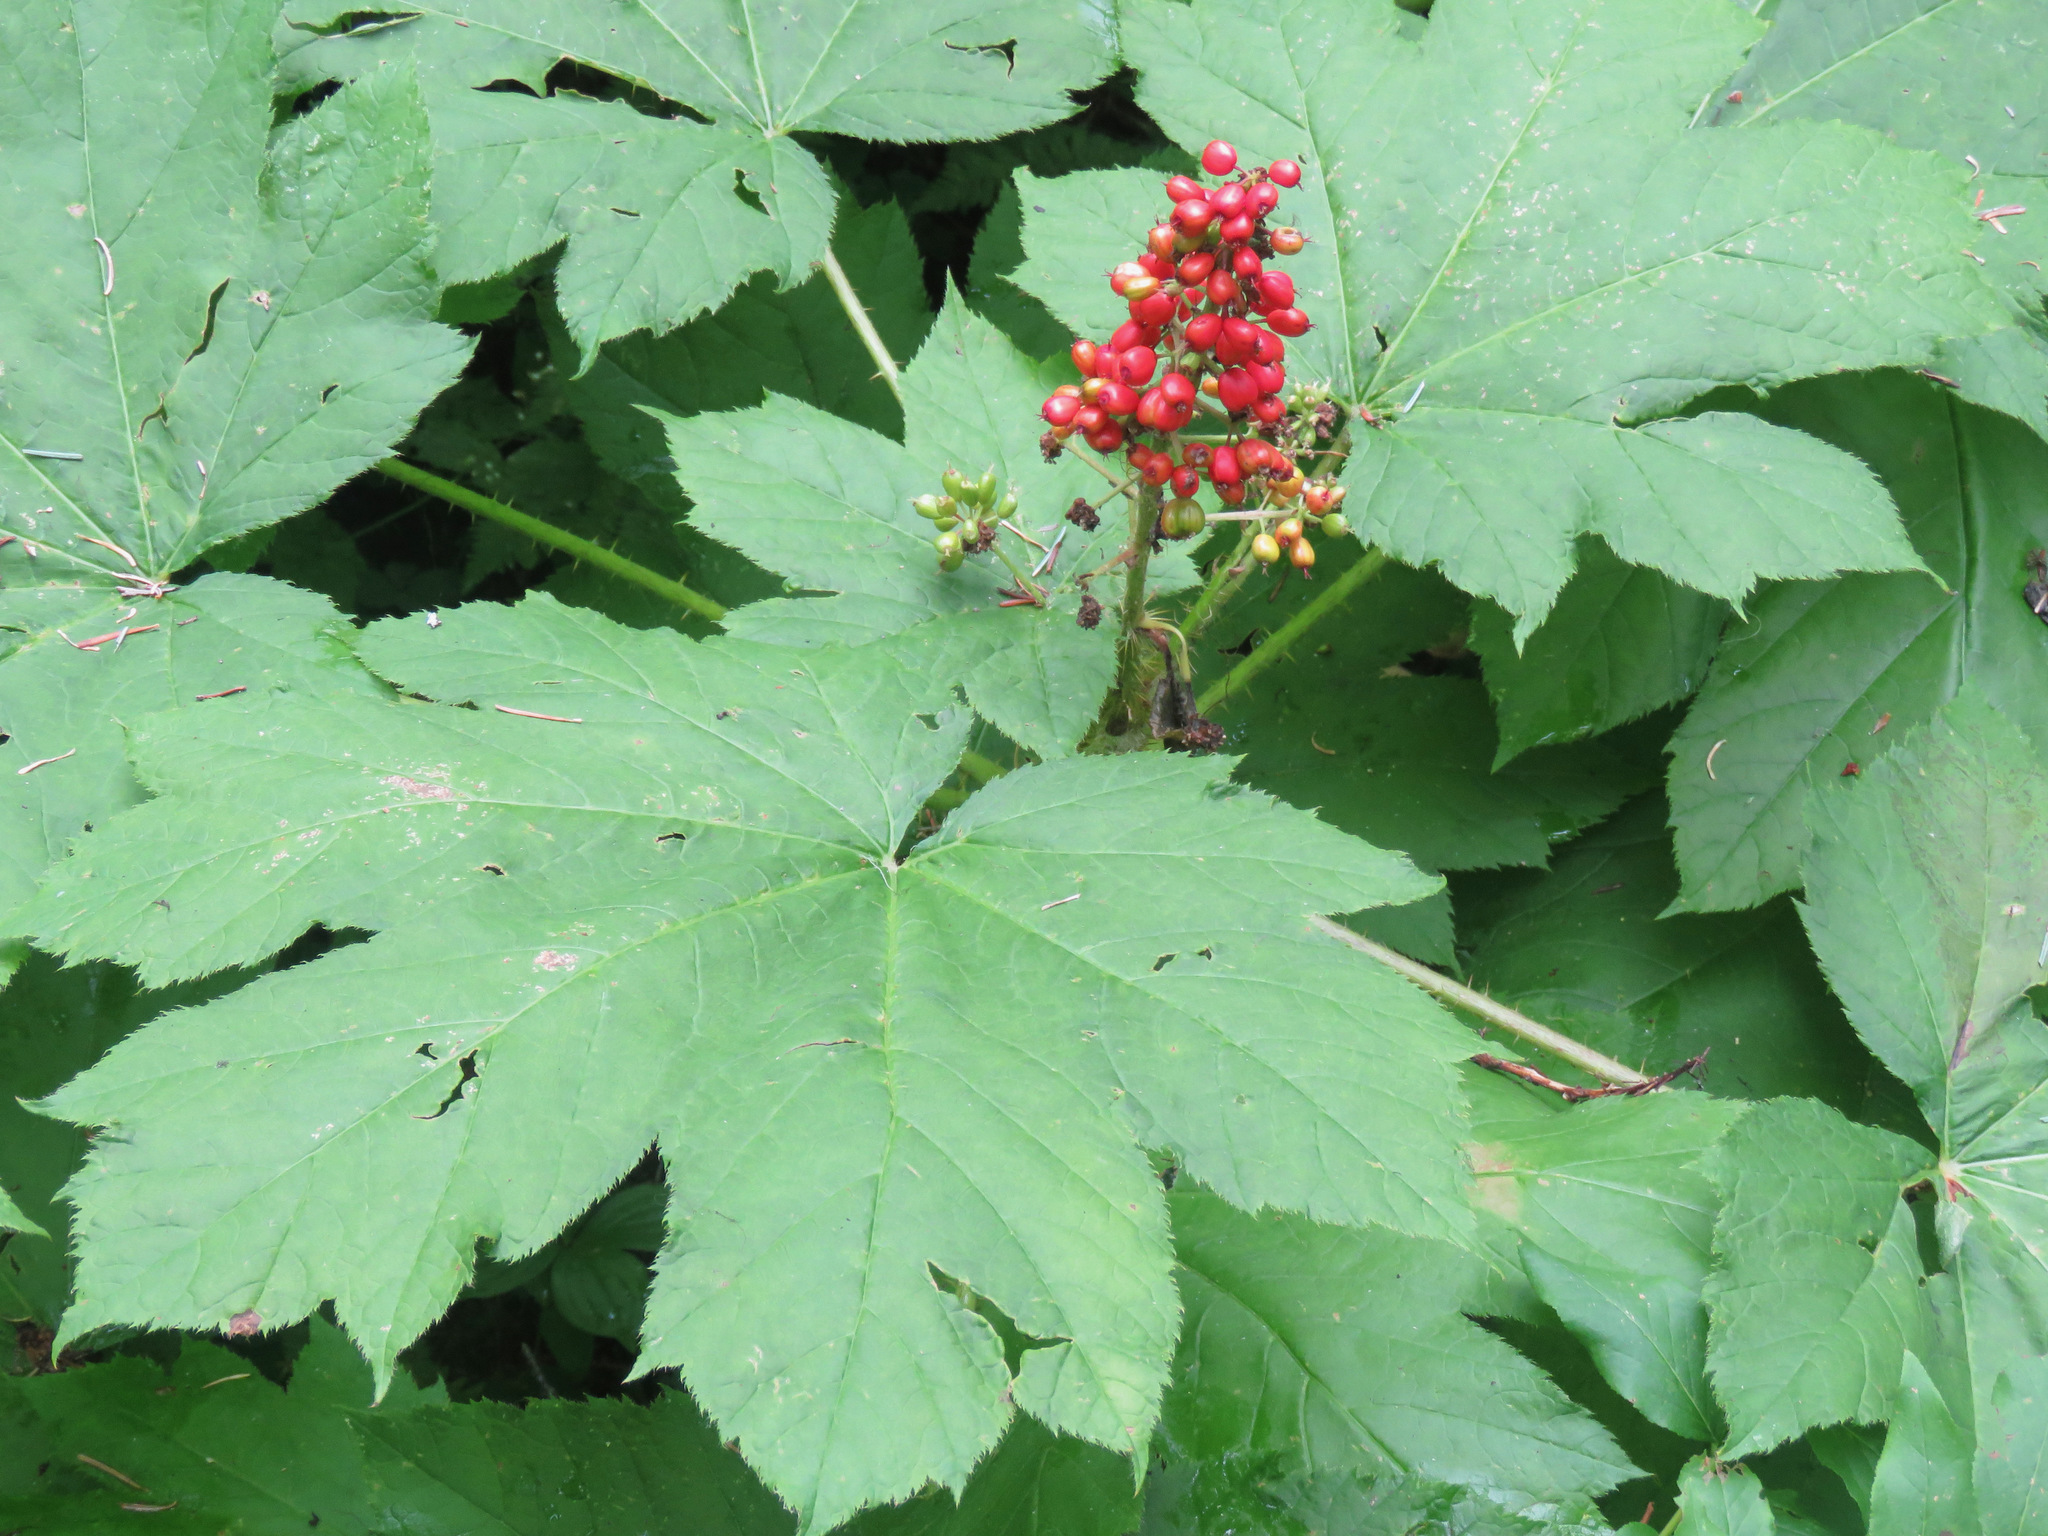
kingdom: Plantae
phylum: Tracheophyta
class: Magnoliopsida
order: Apiales
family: Araliaceae
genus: Oplopanax
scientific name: Oplopanax horridus
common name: Devil's walking-stick
